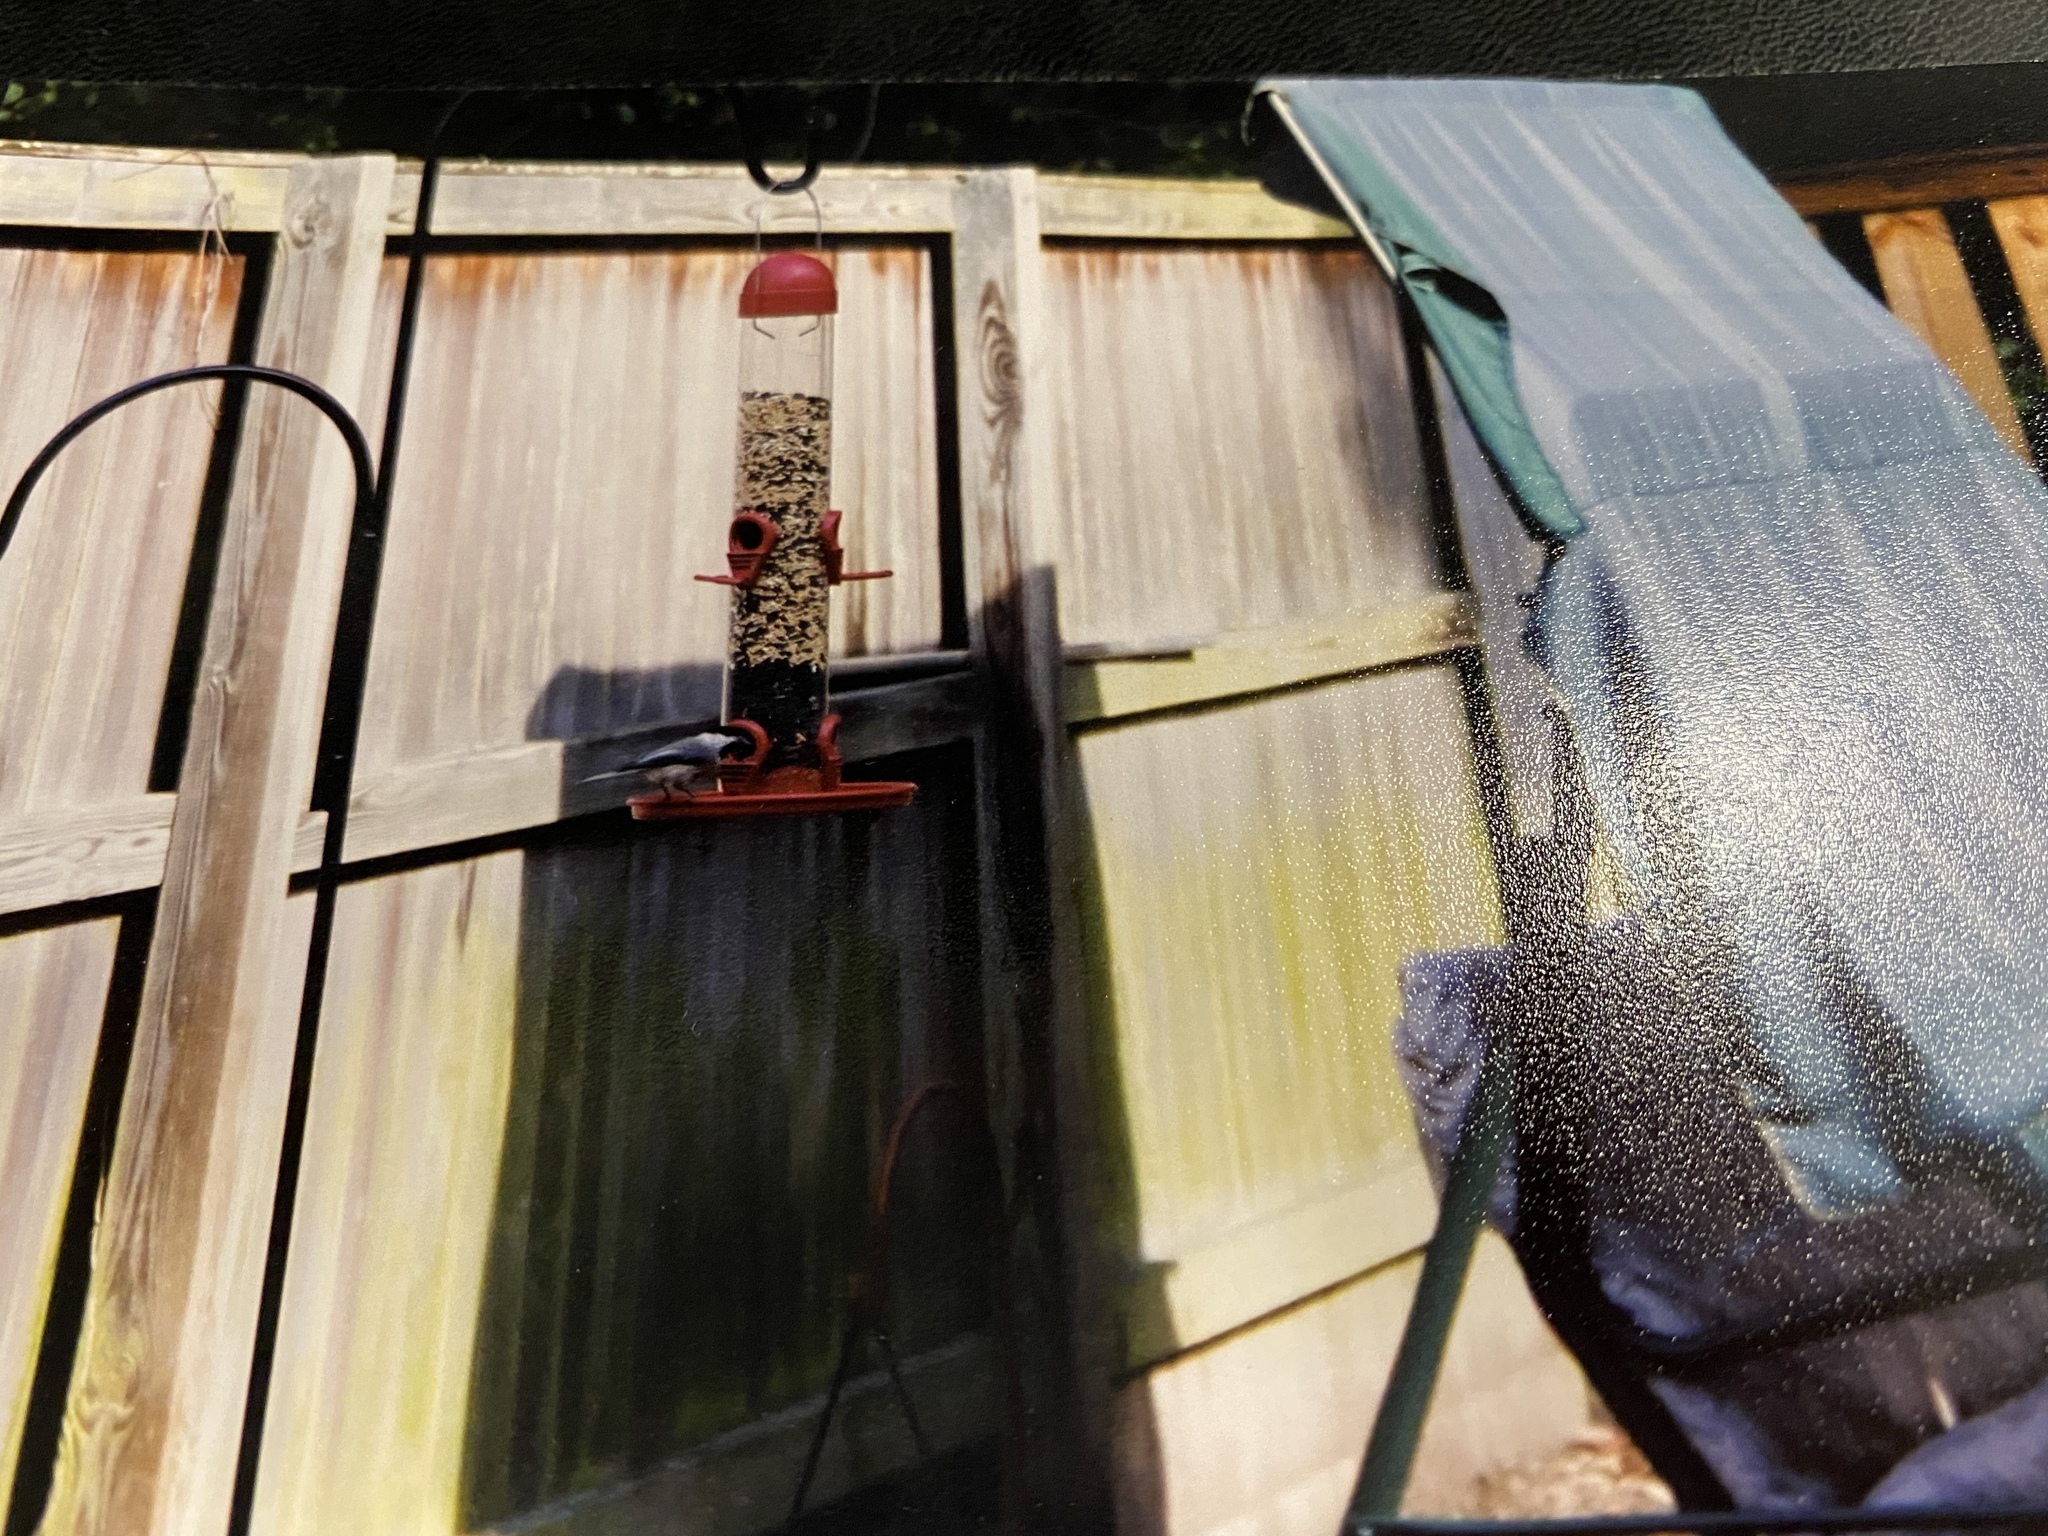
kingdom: Animalia
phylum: Chordata
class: Aves
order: Passeriformes
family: Paridae
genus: Poecile
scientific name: Poecile carolinensis
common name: Carolina chickadee
